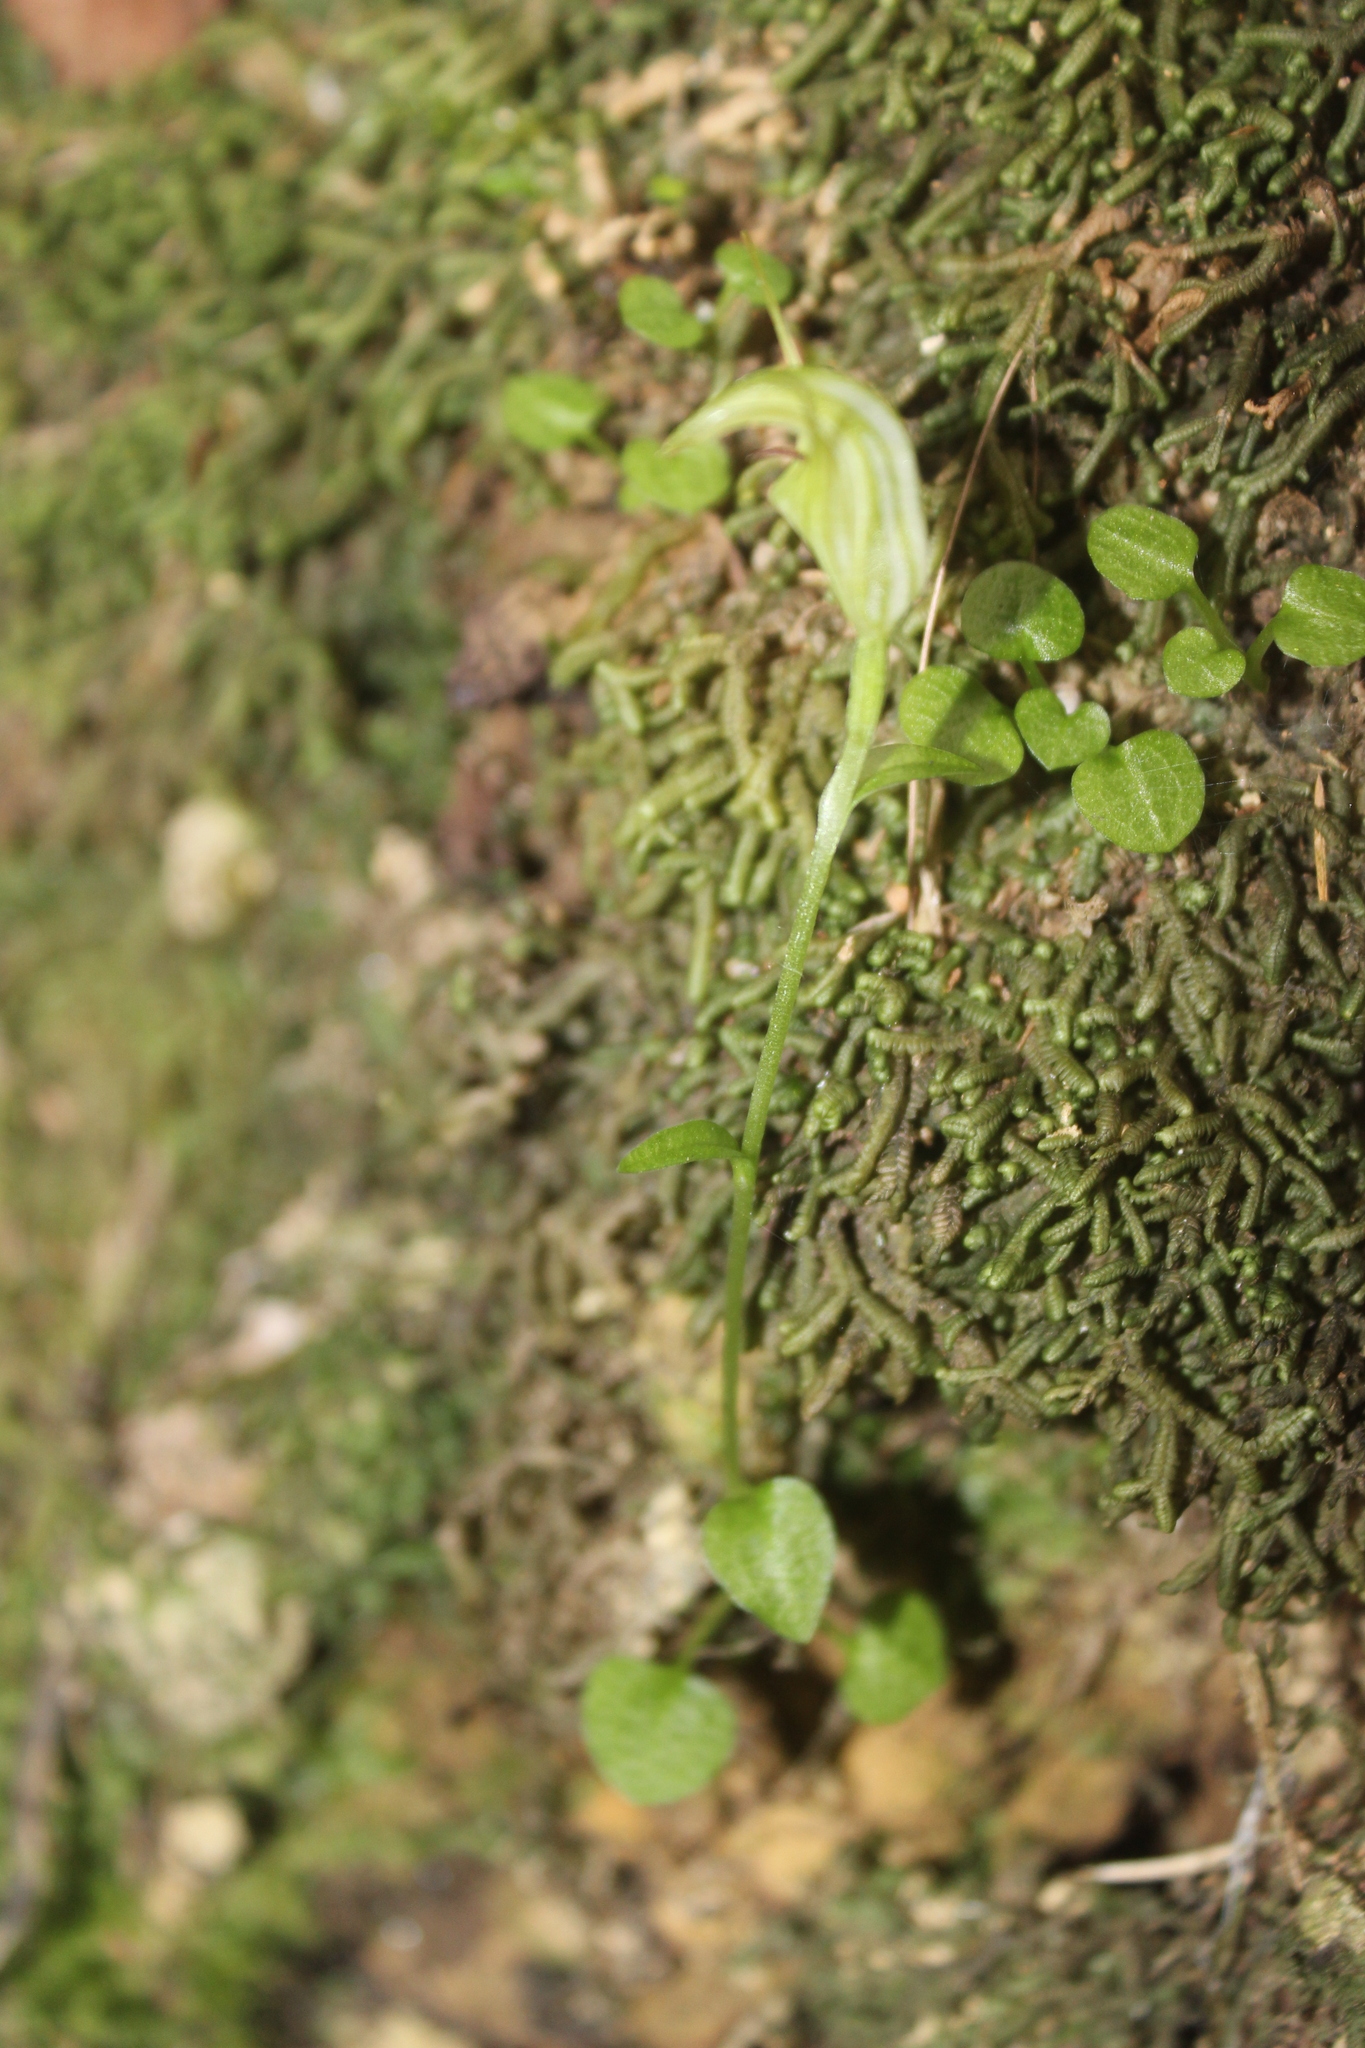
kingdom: Plantae
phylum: Tracheophyta
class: Liliopsida
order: Asparagales
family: Orchidaceae
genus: Pterostylis
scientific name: Pterostylis trullifolia
